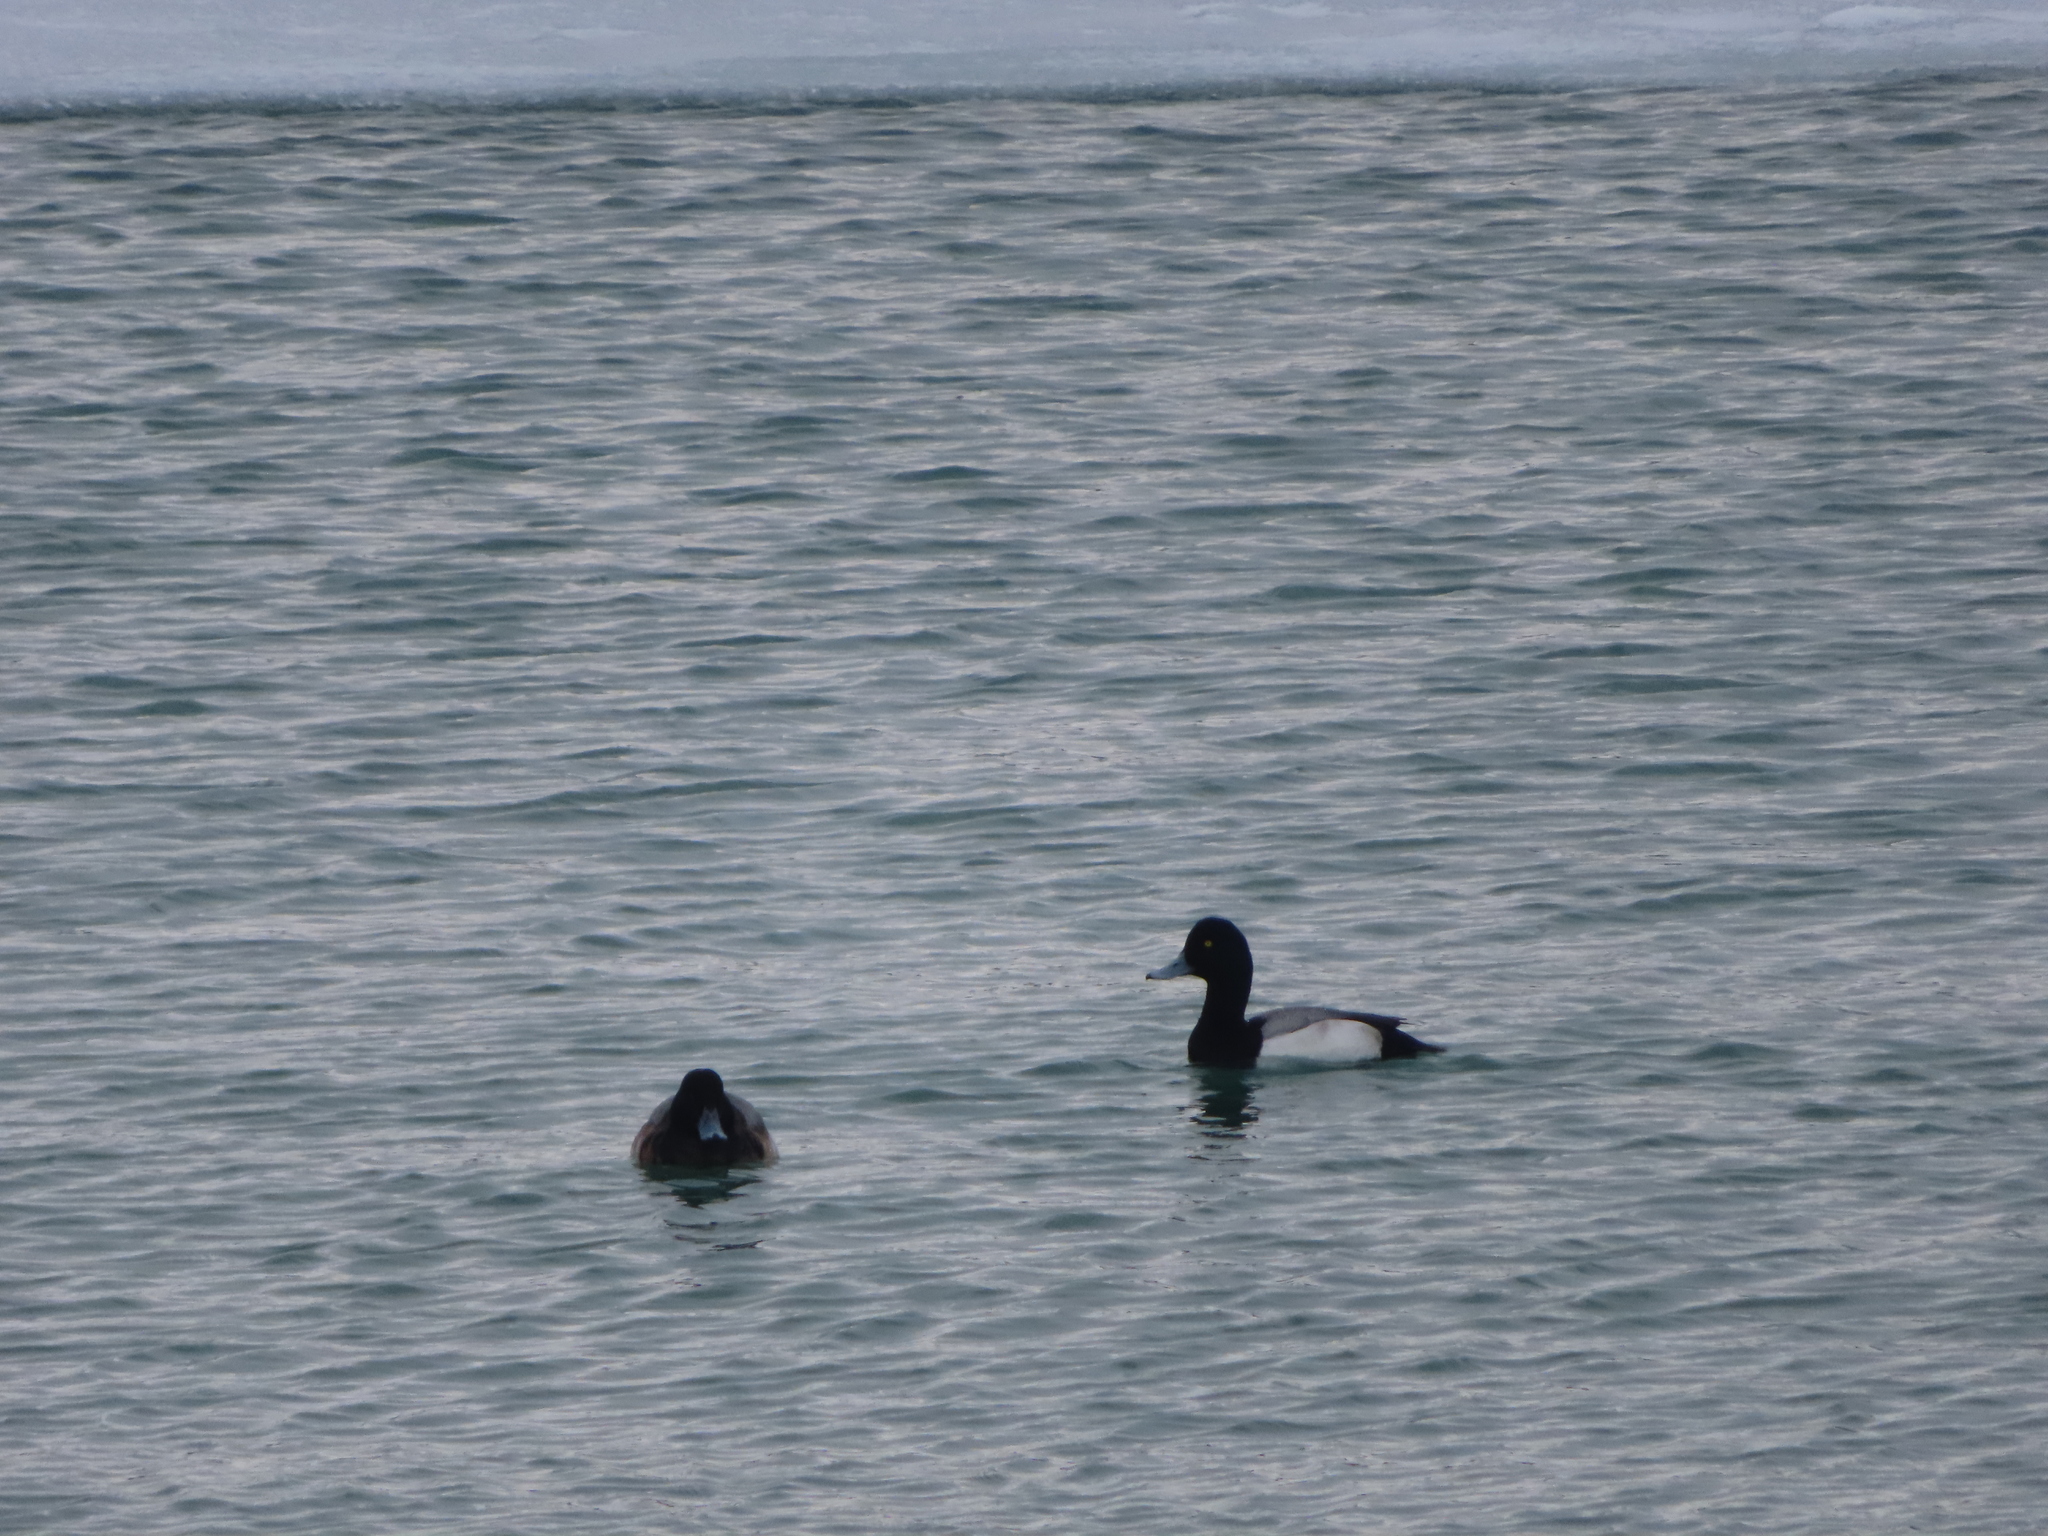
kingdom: Animalia
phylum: Chordata
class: Aves
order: Anseriformes
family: Anatidae
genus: Aythya
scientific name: Aythya marila
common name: Greater scaup
